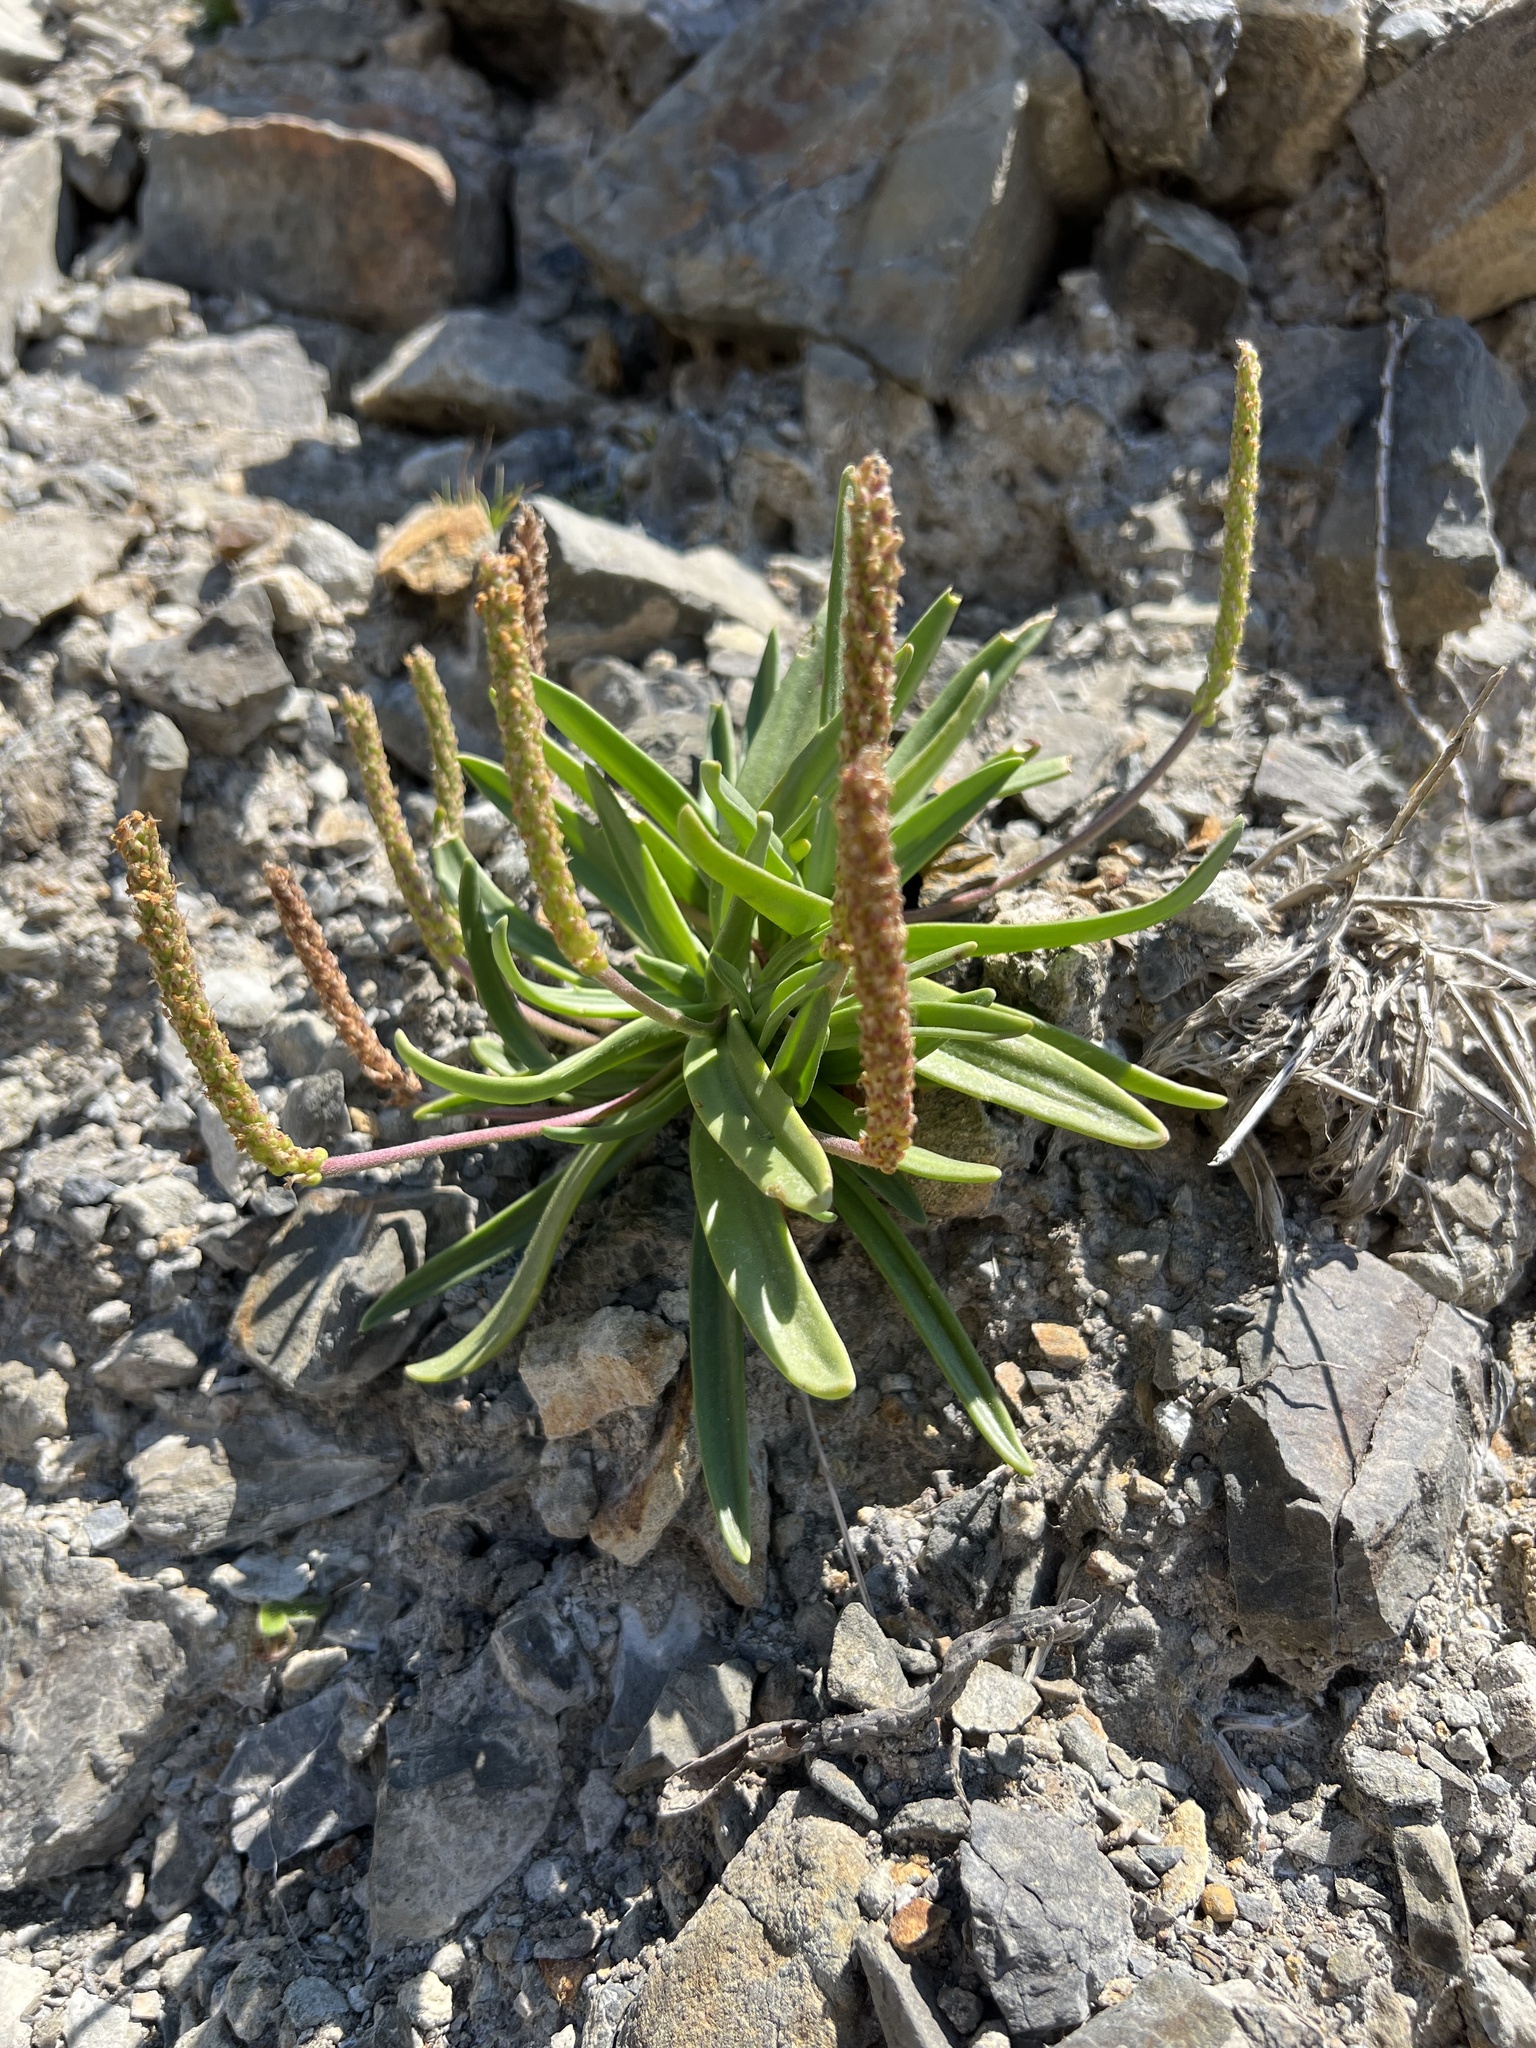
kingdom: Plantae
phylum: Tracheophyta
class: Magnoliopsida
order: Lamiales
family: Plantaginaceae
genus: Plantago
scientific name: Plantago maritima
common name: Sea plantain
